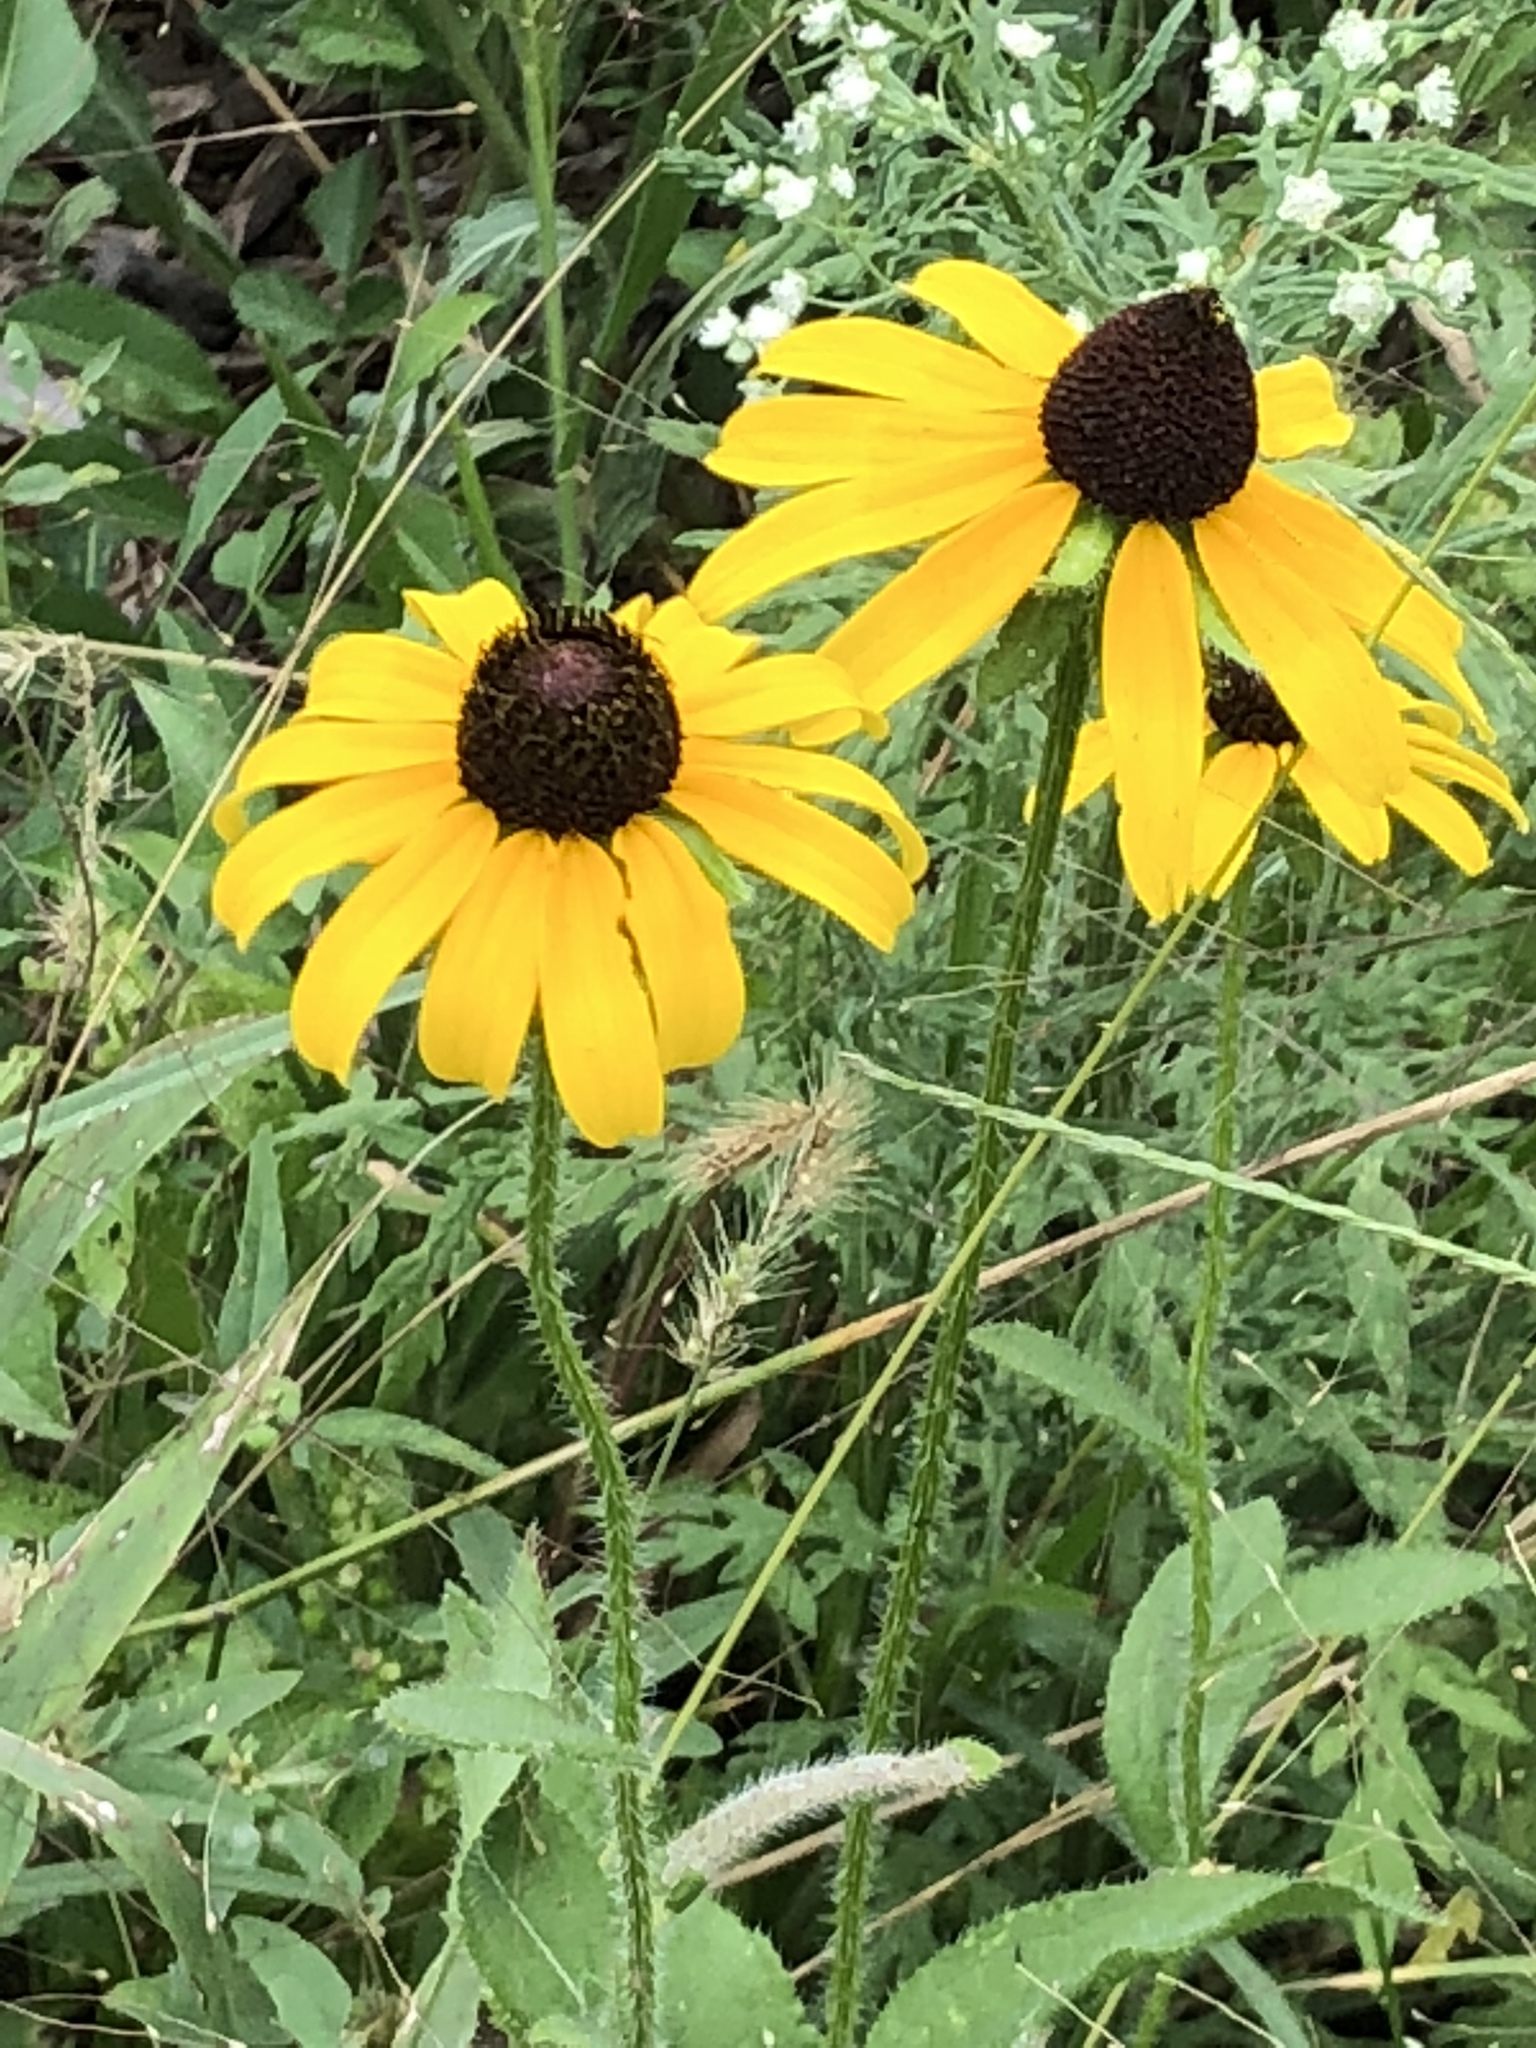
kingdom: Plantae
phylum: Tracheophyta
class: Magnoliopsida
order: Asterales
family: Asteraceae
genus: Rudbeckia
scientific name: Rudbeckia hirta
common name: Black-eyed-susan
